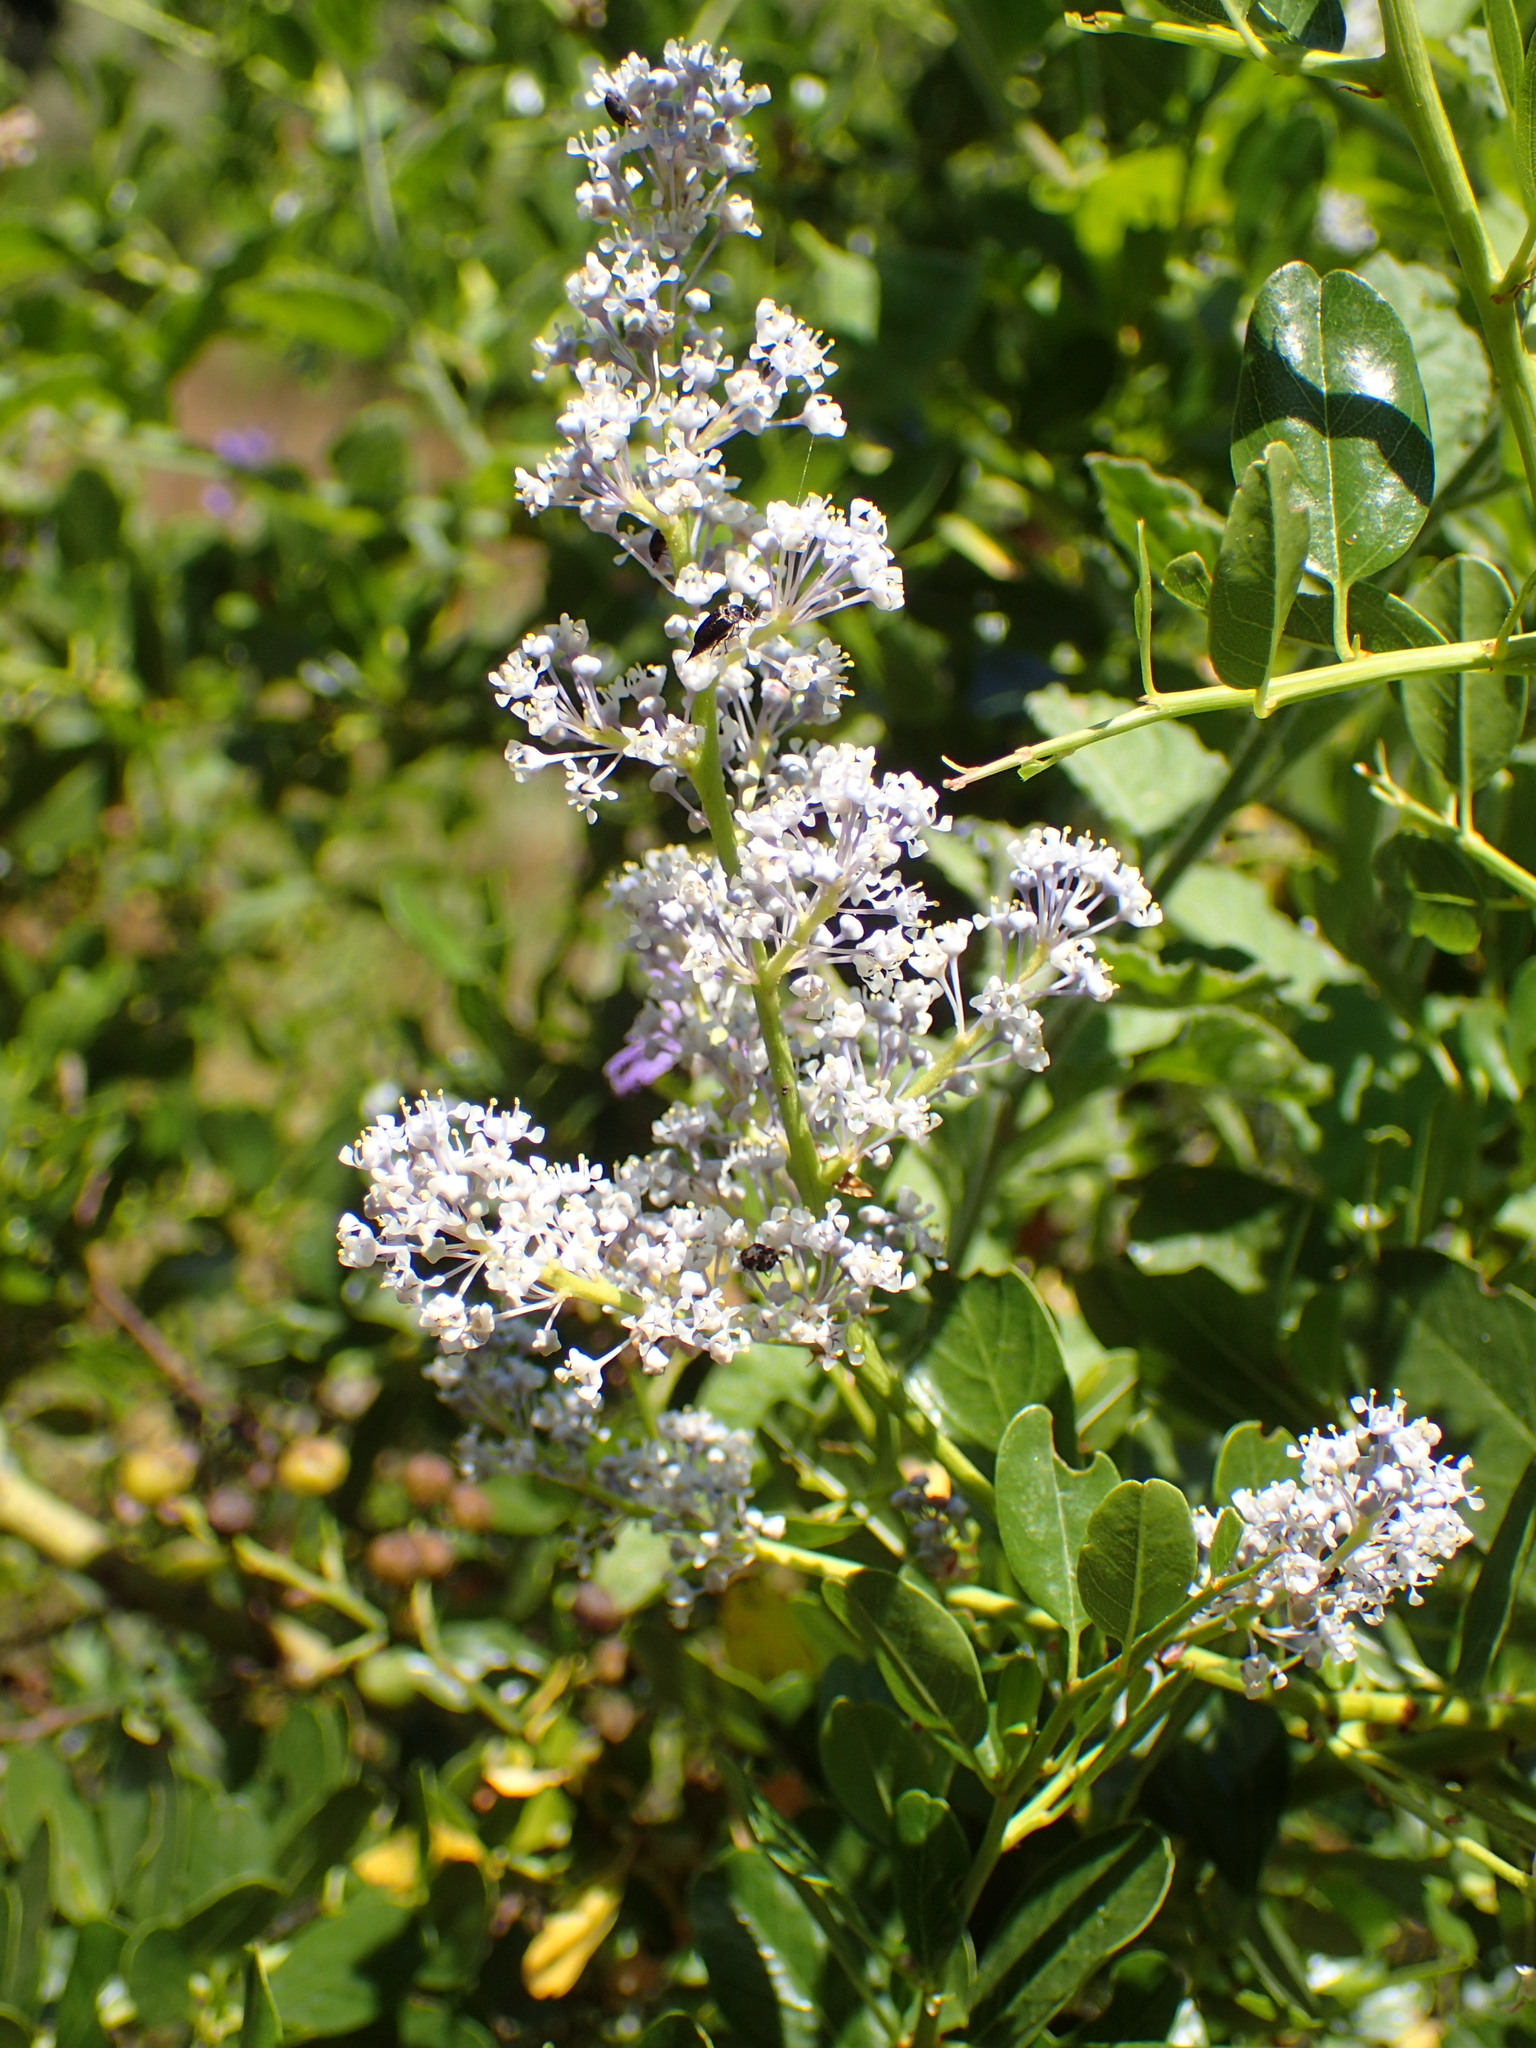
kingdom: Plantae
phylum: Tracheophyta
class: Magnoliopsida
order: Rosales
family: Rhamnaceae
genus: Ceanothus
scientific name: Ceanothus spinosus
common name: Greenbark whitethorn
